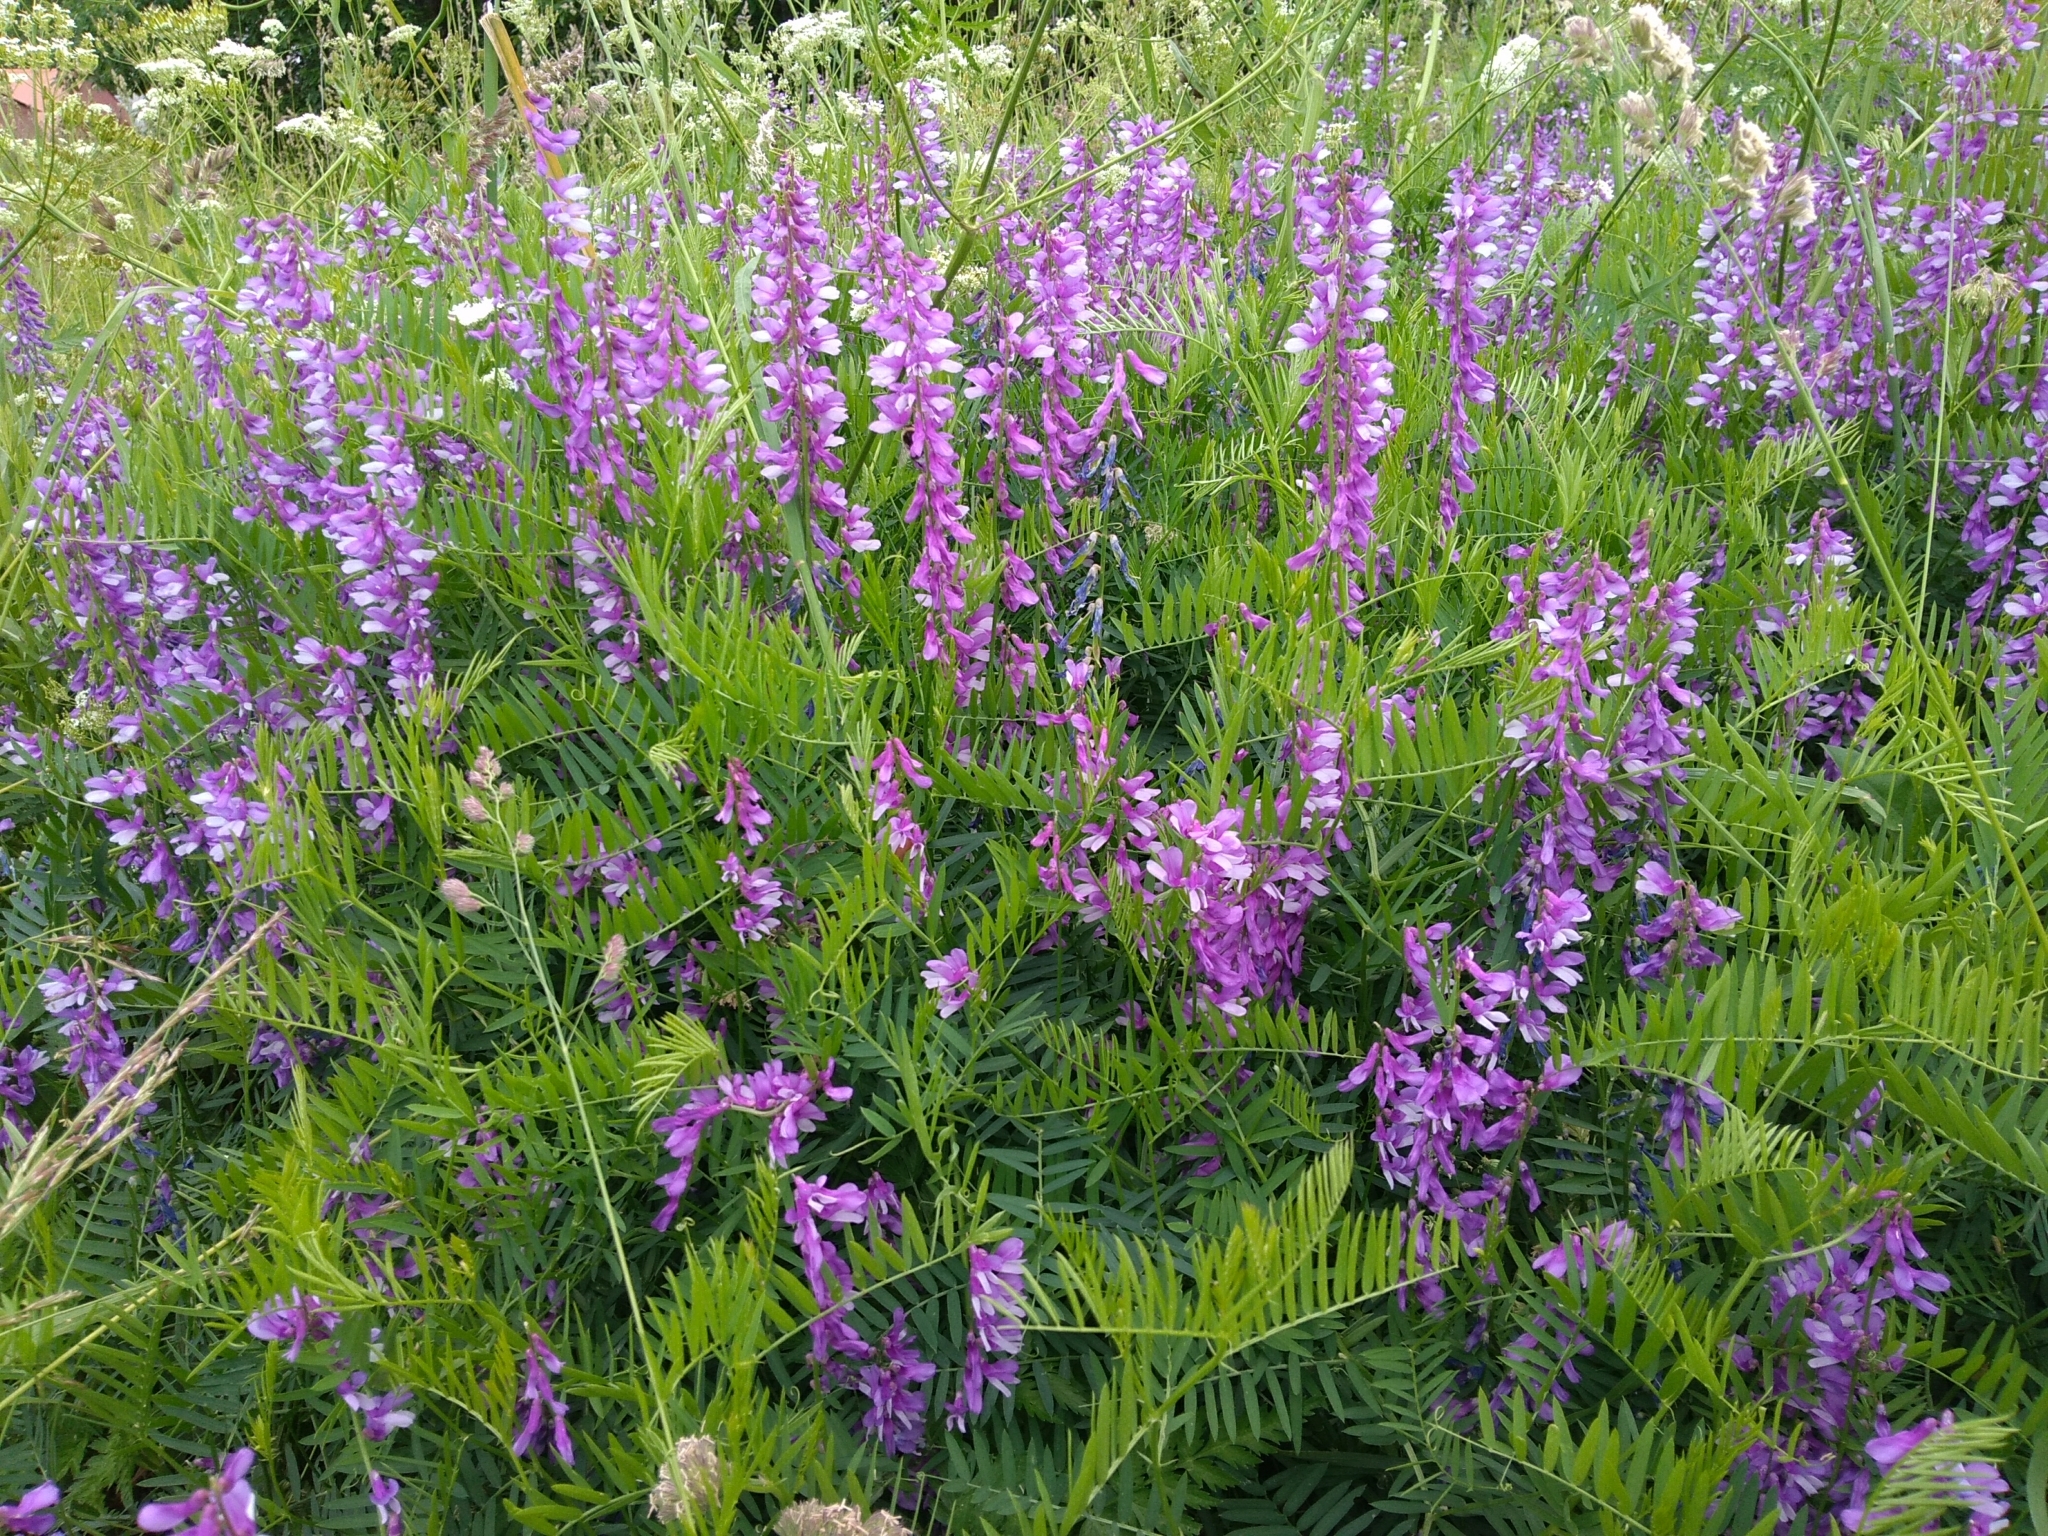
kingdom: Plantae
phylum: Tracheophyta
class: Magnoliopsida
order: Fabales
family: Fabaceae
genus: Vicia
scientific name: Vicia tenuifolia
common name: Fine-leaved vetch
